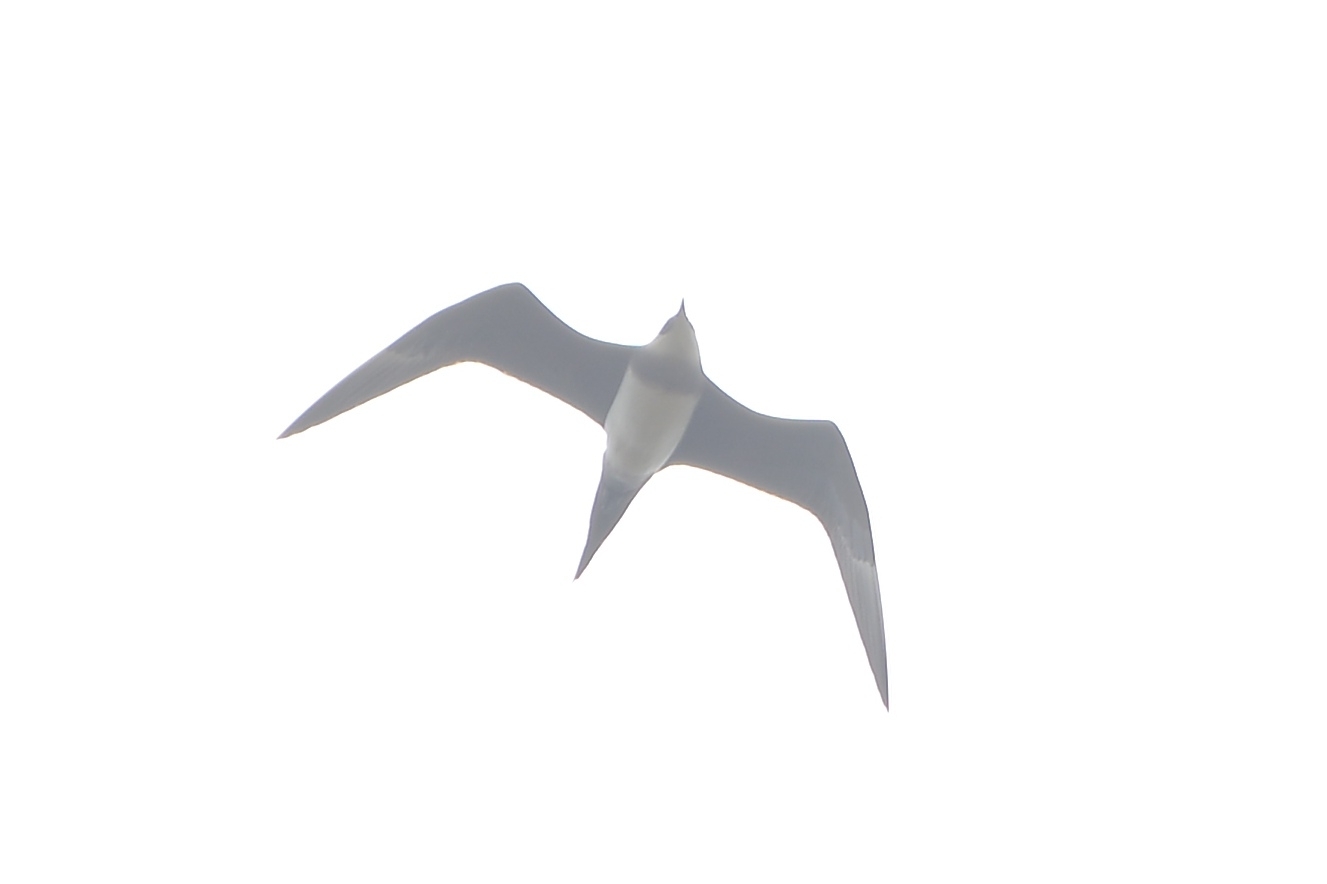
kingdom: Animalia
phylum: Chordata
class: Aves
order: Charadriiformes
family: Stercorariidae
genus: Stercorarius
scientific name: Stercorarius parasiticus
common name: Parasitic jaeger
